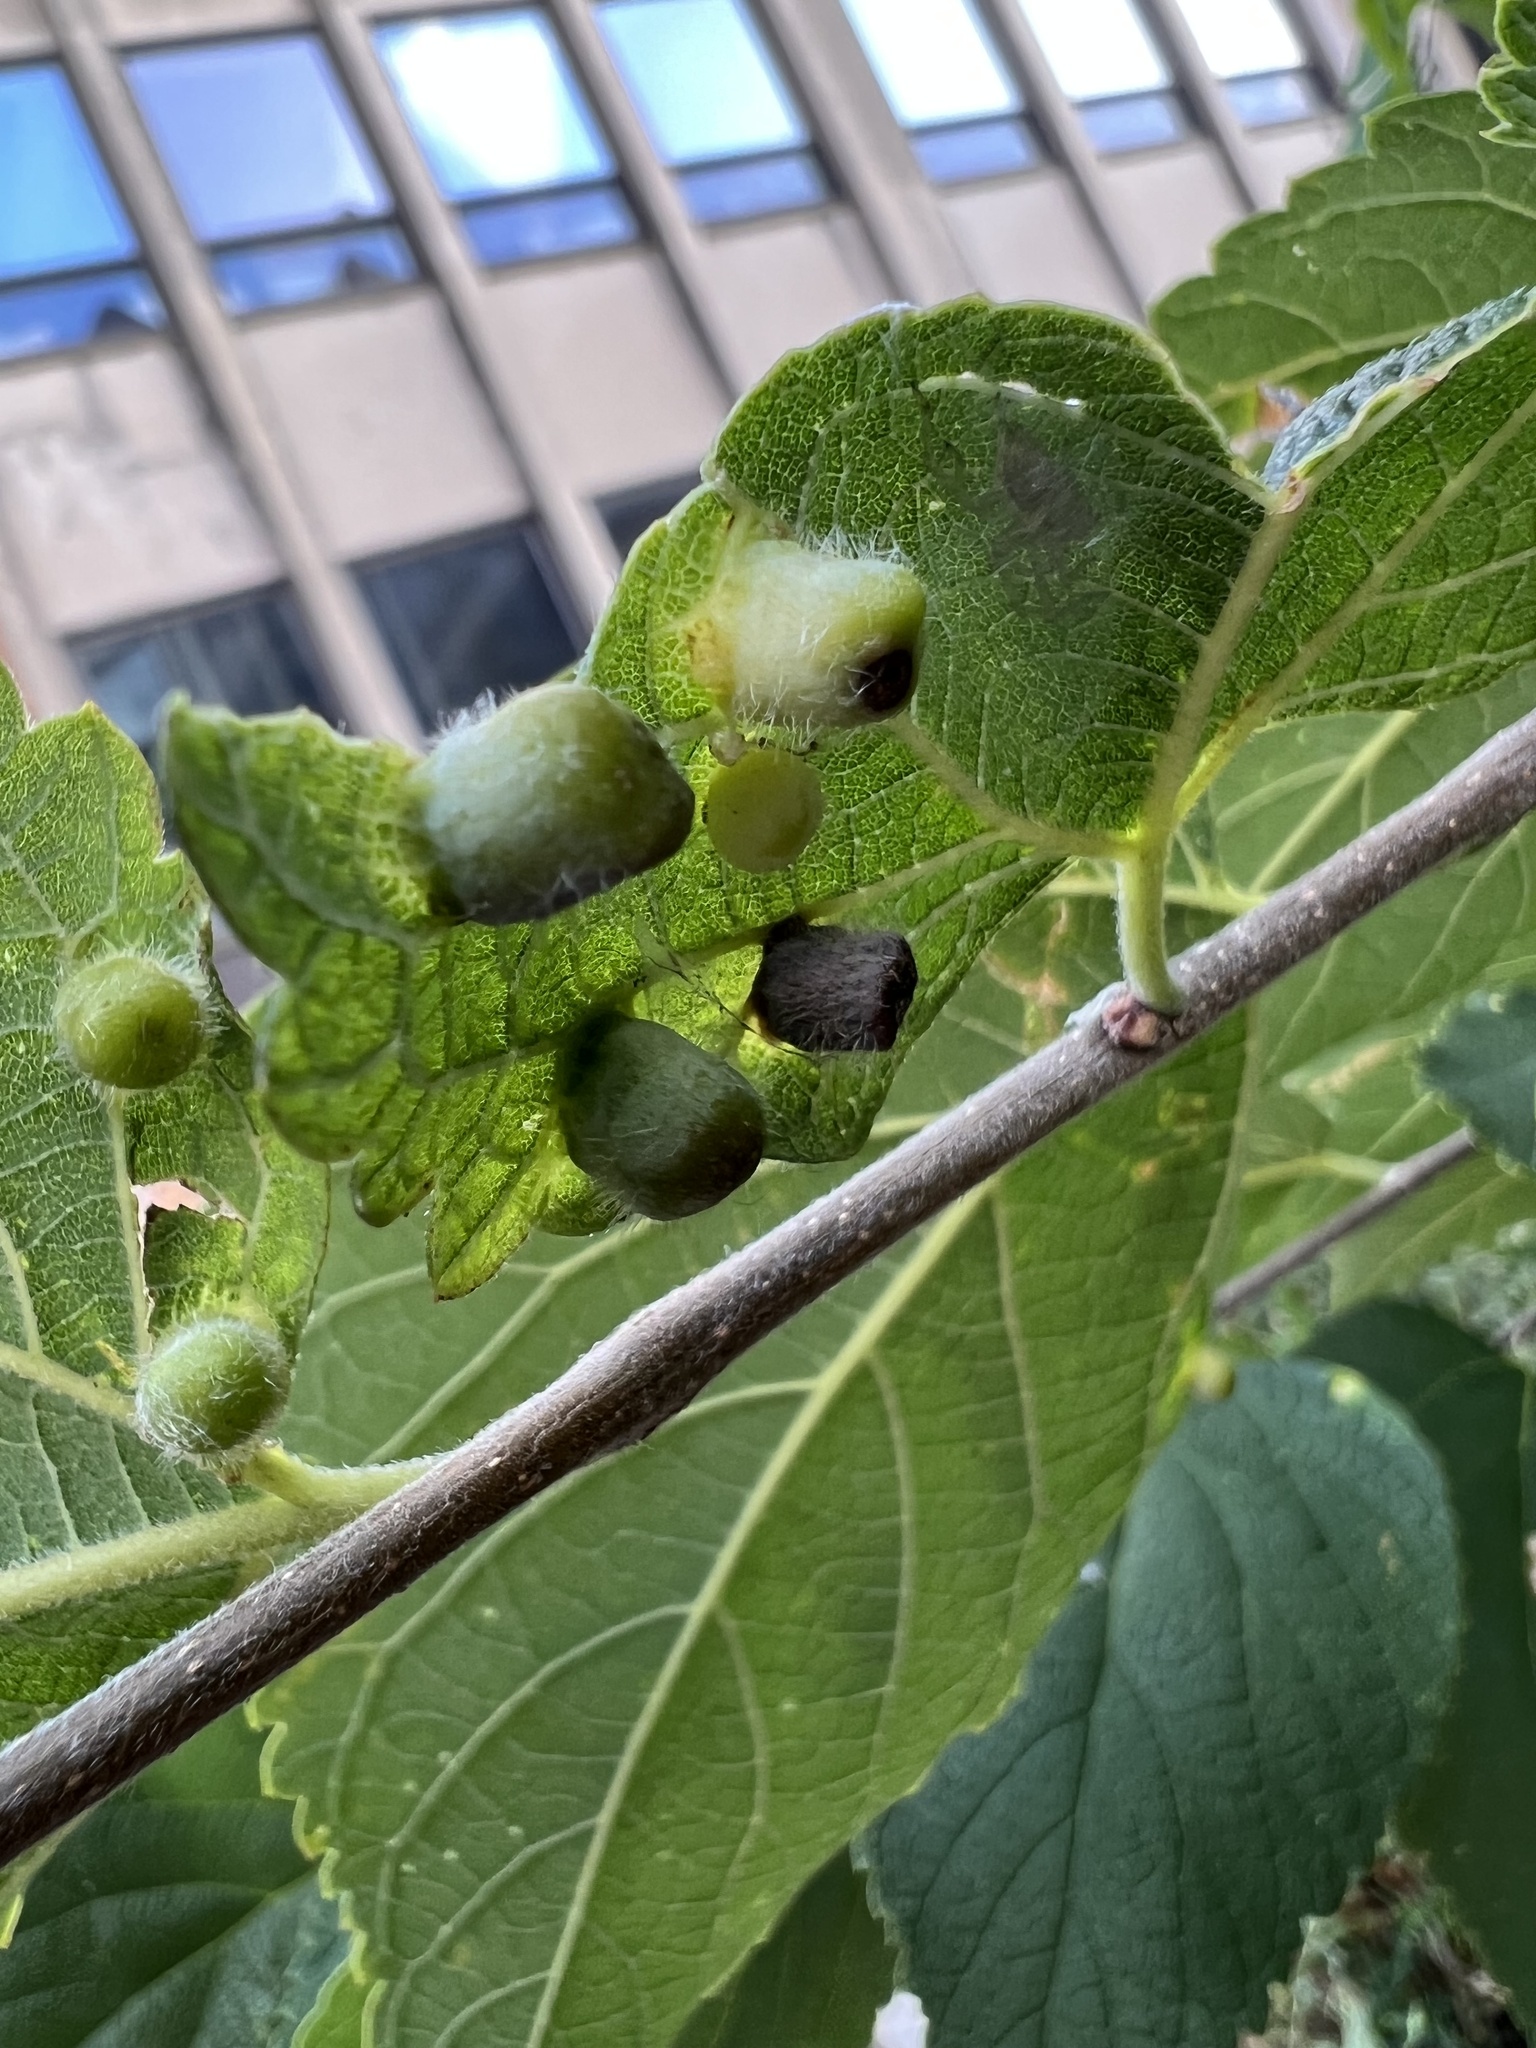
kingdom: Animalia
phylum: Arthropoda
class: Insecta
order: Hemiptera
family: Aphalaridae
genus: Pachypsylla
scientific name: Pachypsylla celtidismamma
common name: Hackberry nipplegall psyllid
